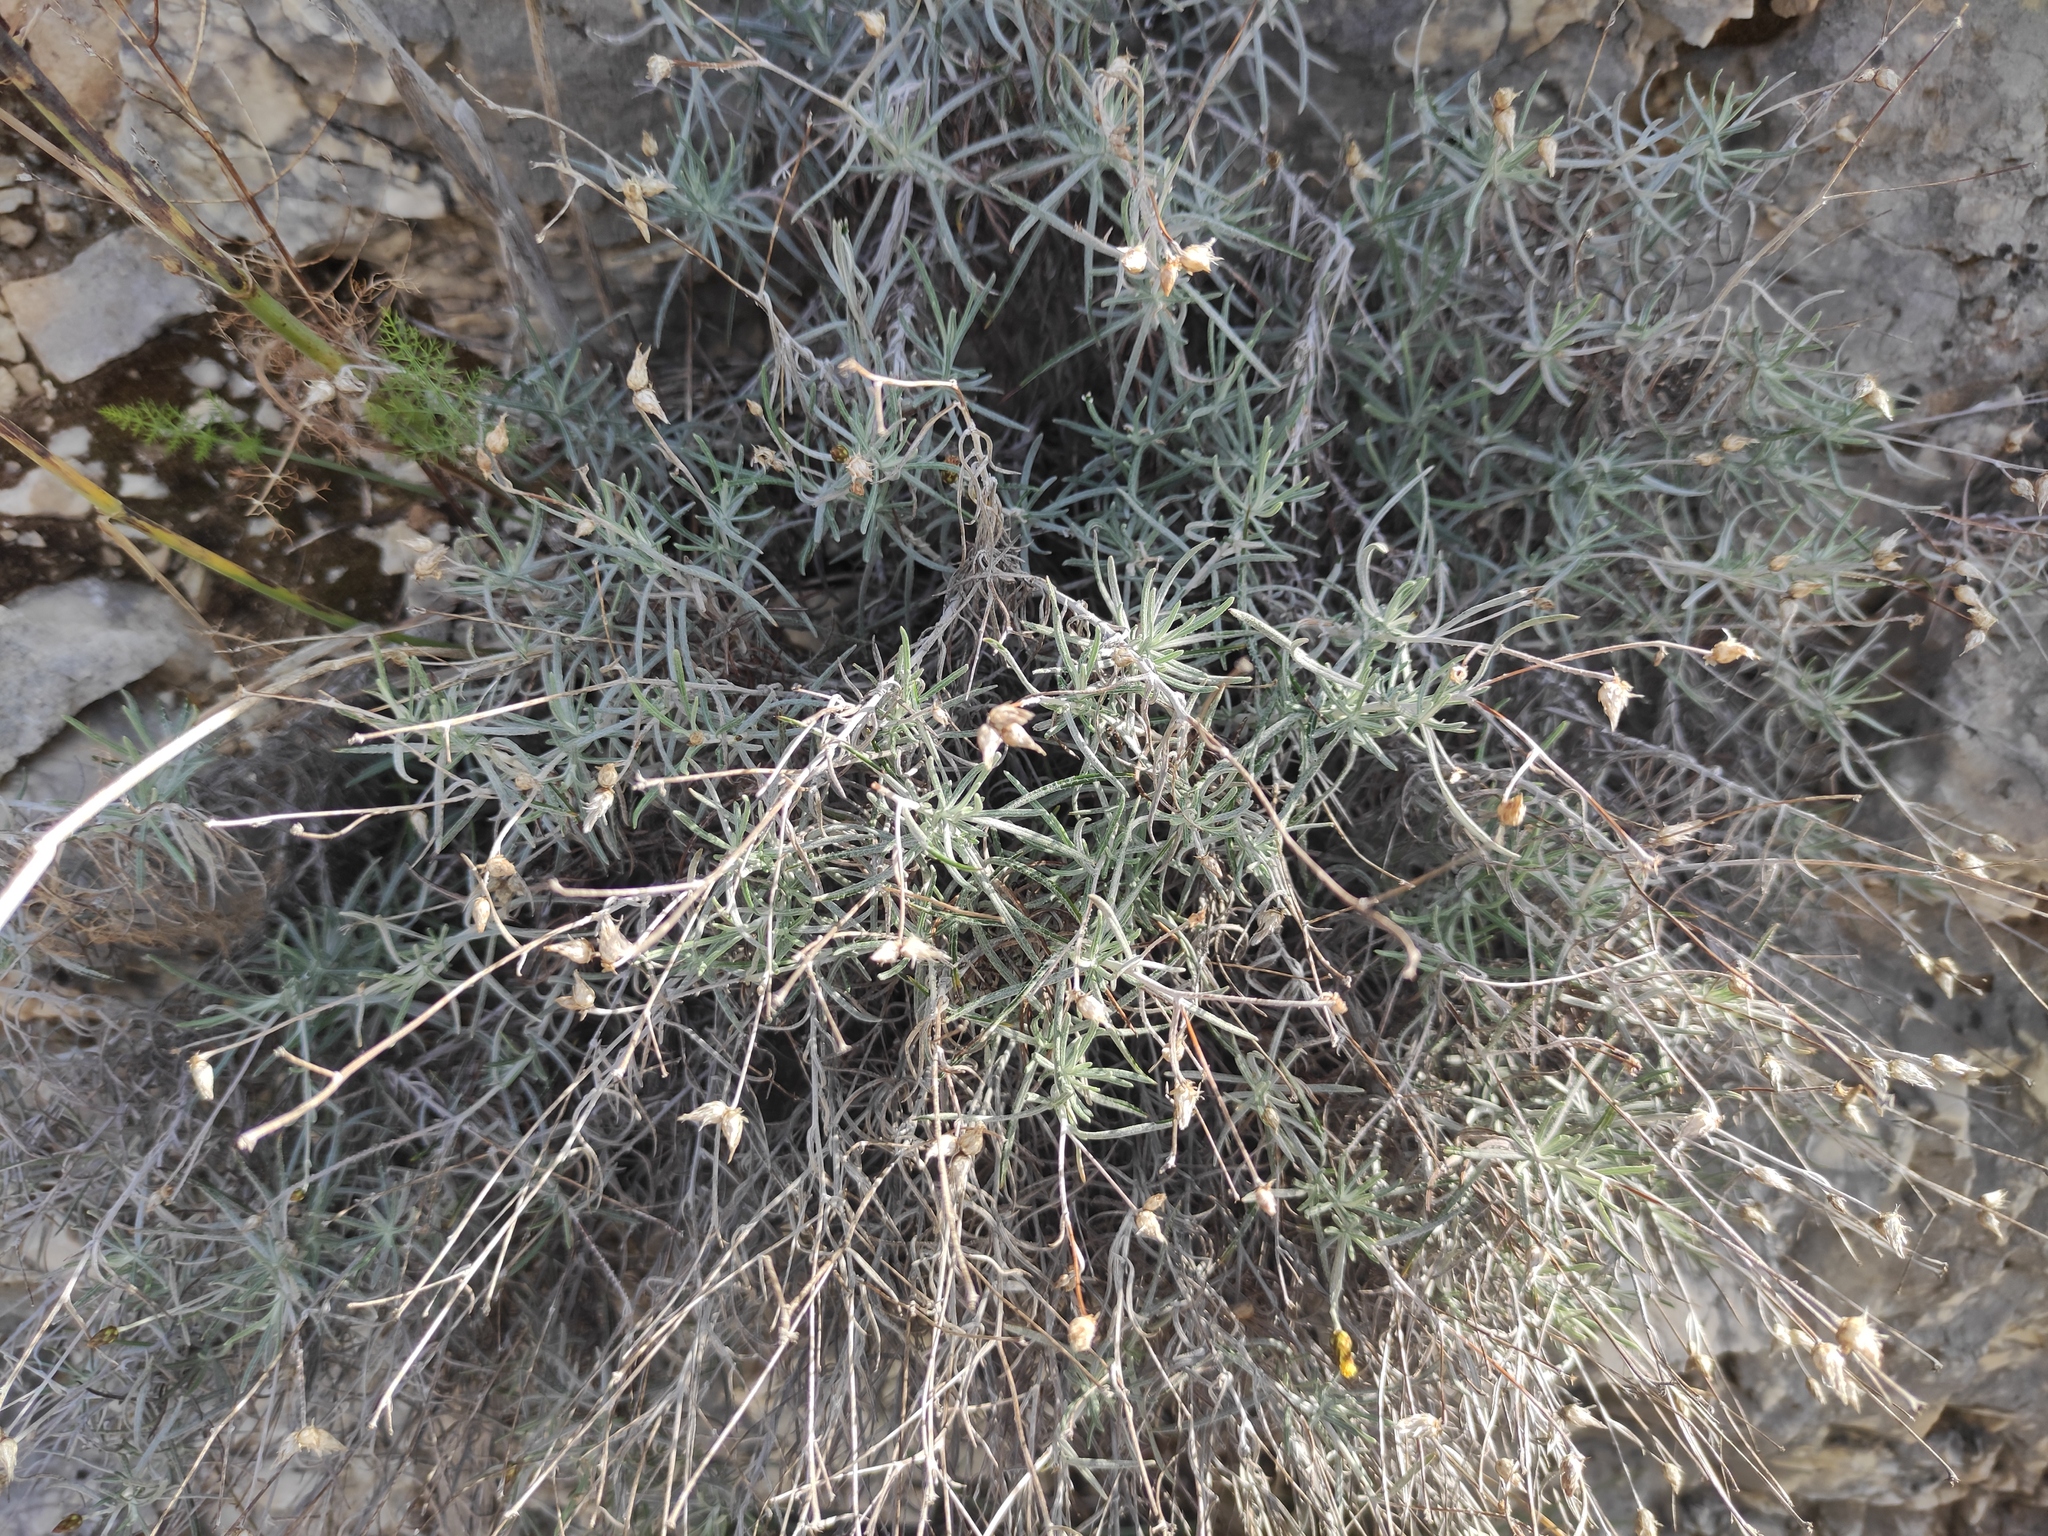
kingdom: Plantae
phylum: Tracheophyta
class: Magnoliopsida
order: Asterales
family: Asteraceae
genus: Phagnalon
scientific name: Phagnalon sordidum
